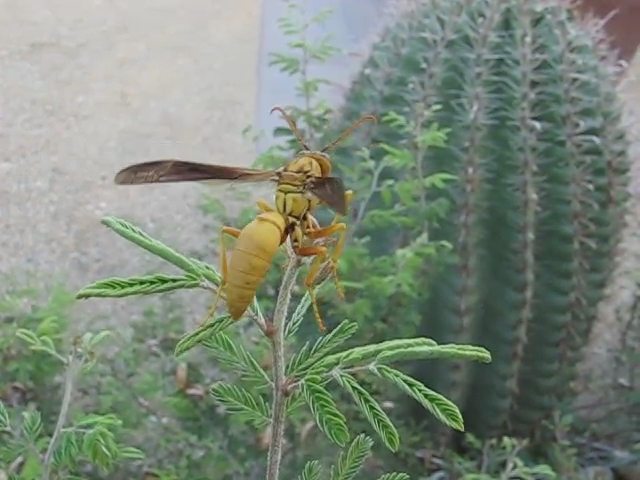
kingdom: Animalia
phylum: Arthropoda
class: Insecta
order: Hymenoptera
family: Eumenidae
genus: Polistes
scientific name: Polistes flavus
